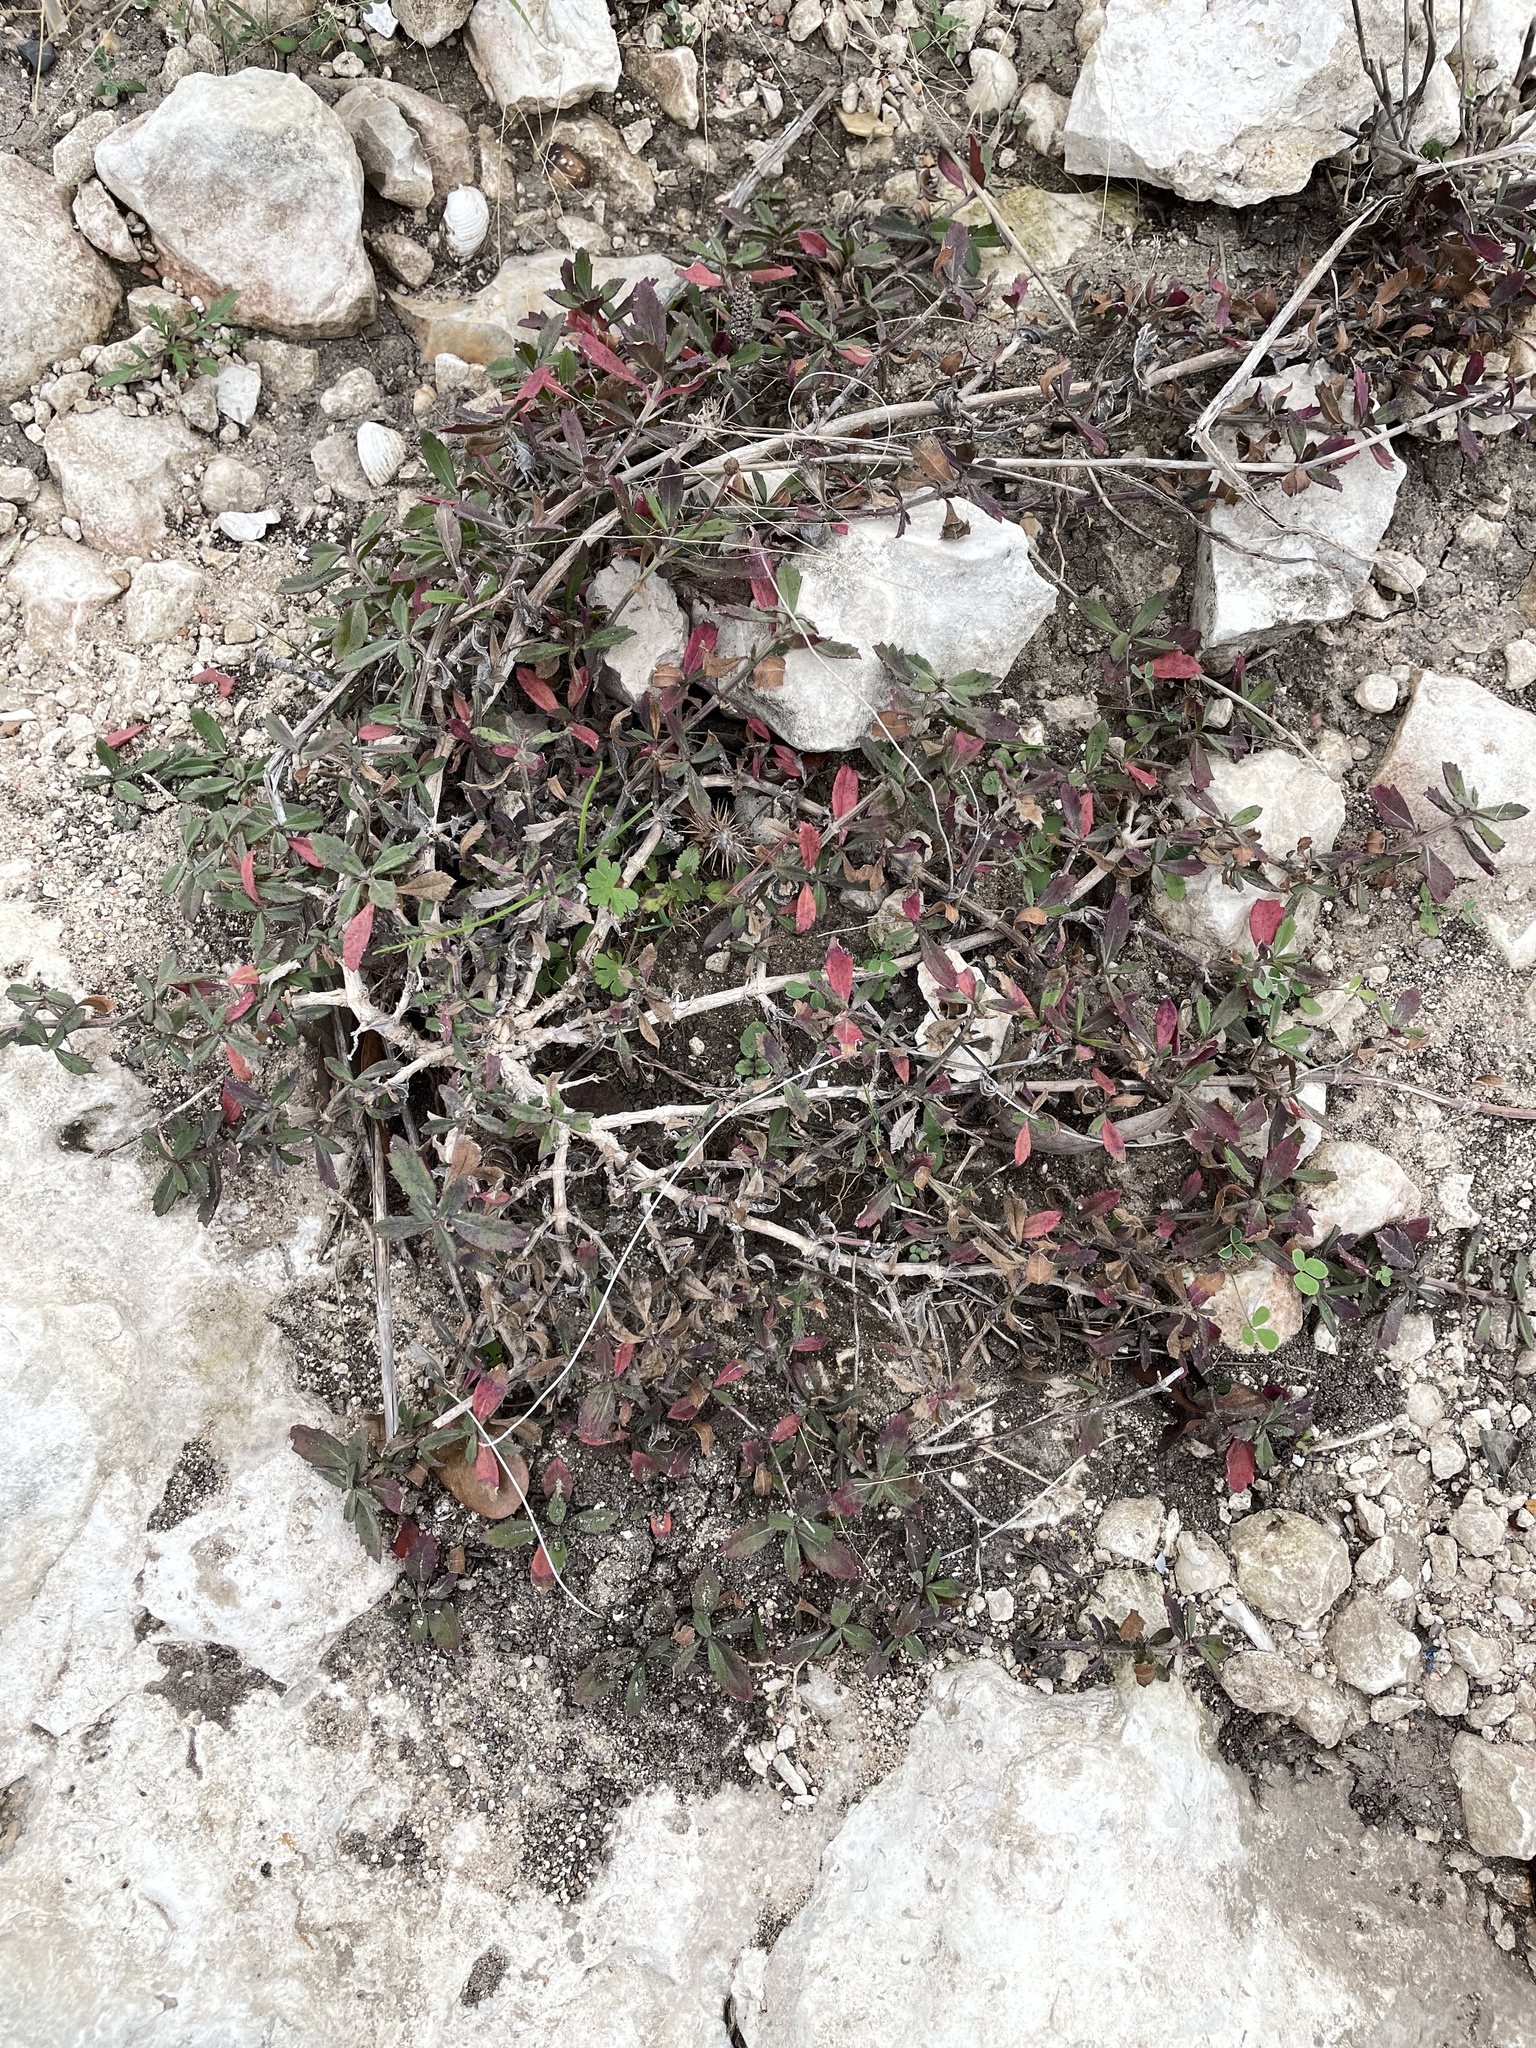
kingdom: Plantae
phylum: Tracheophyta
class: Magnoliopsida
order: Lamiales
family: Verbenaceae
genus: Phyla
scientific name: Phyla nodiflora
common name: Frogfruit
